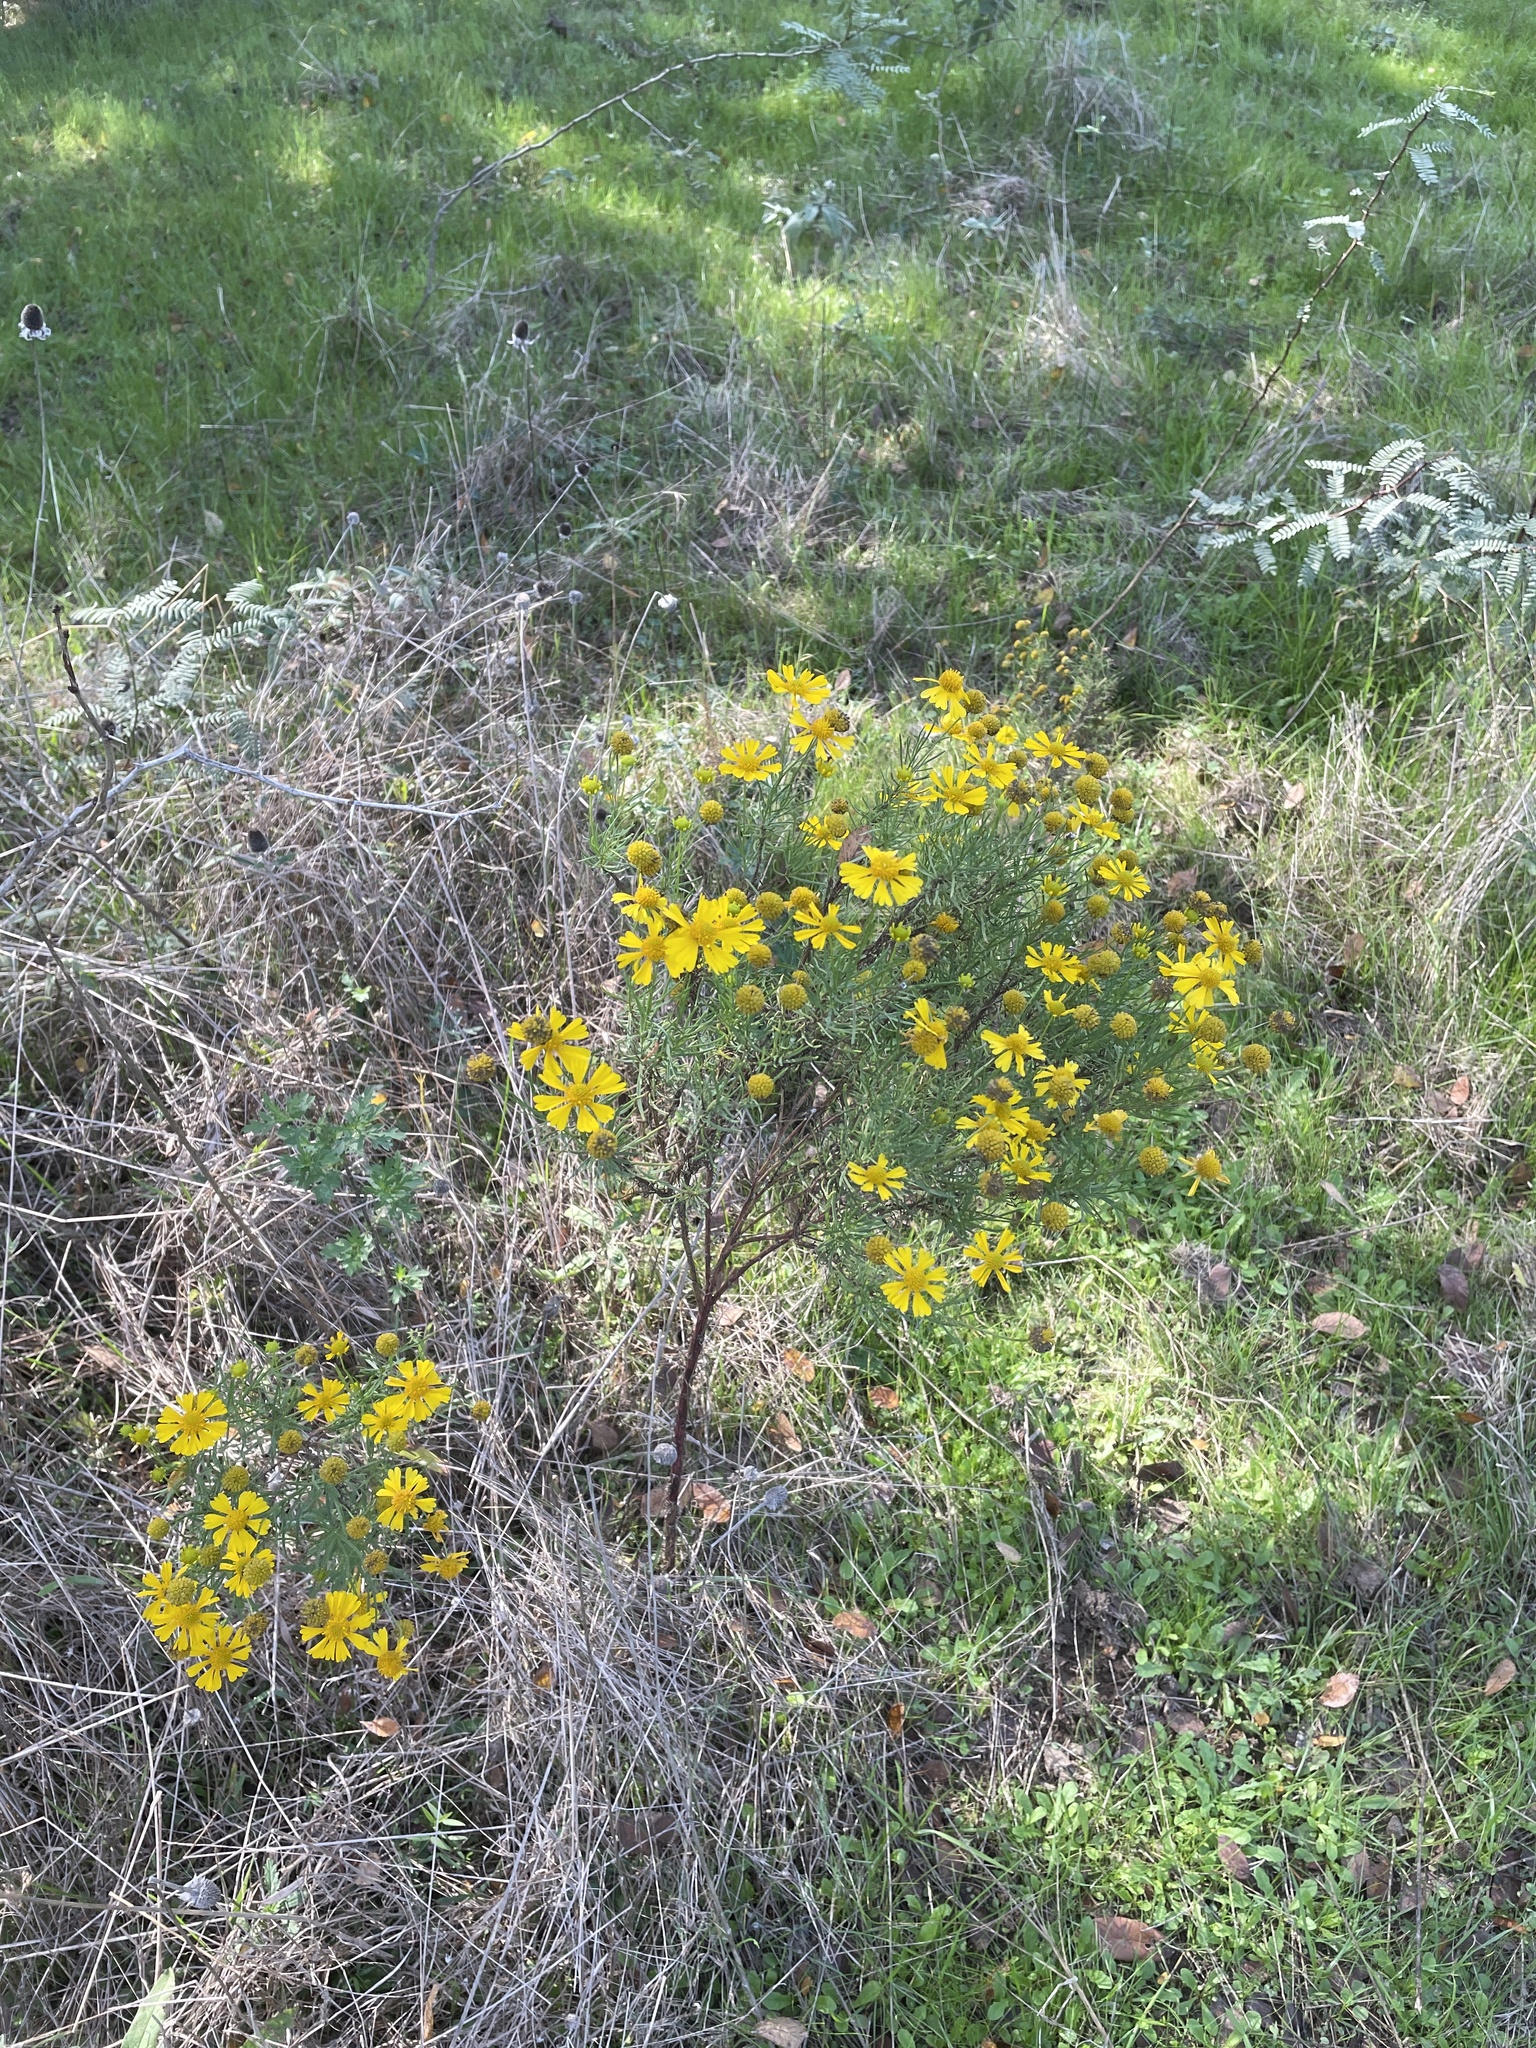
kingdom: Plantae
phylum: Tracheophyta
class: Magnoliopsida
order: Asterales
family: Asteraceae
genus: Helenium
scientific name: Helenium amarum
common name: Bitter sneezeweed
